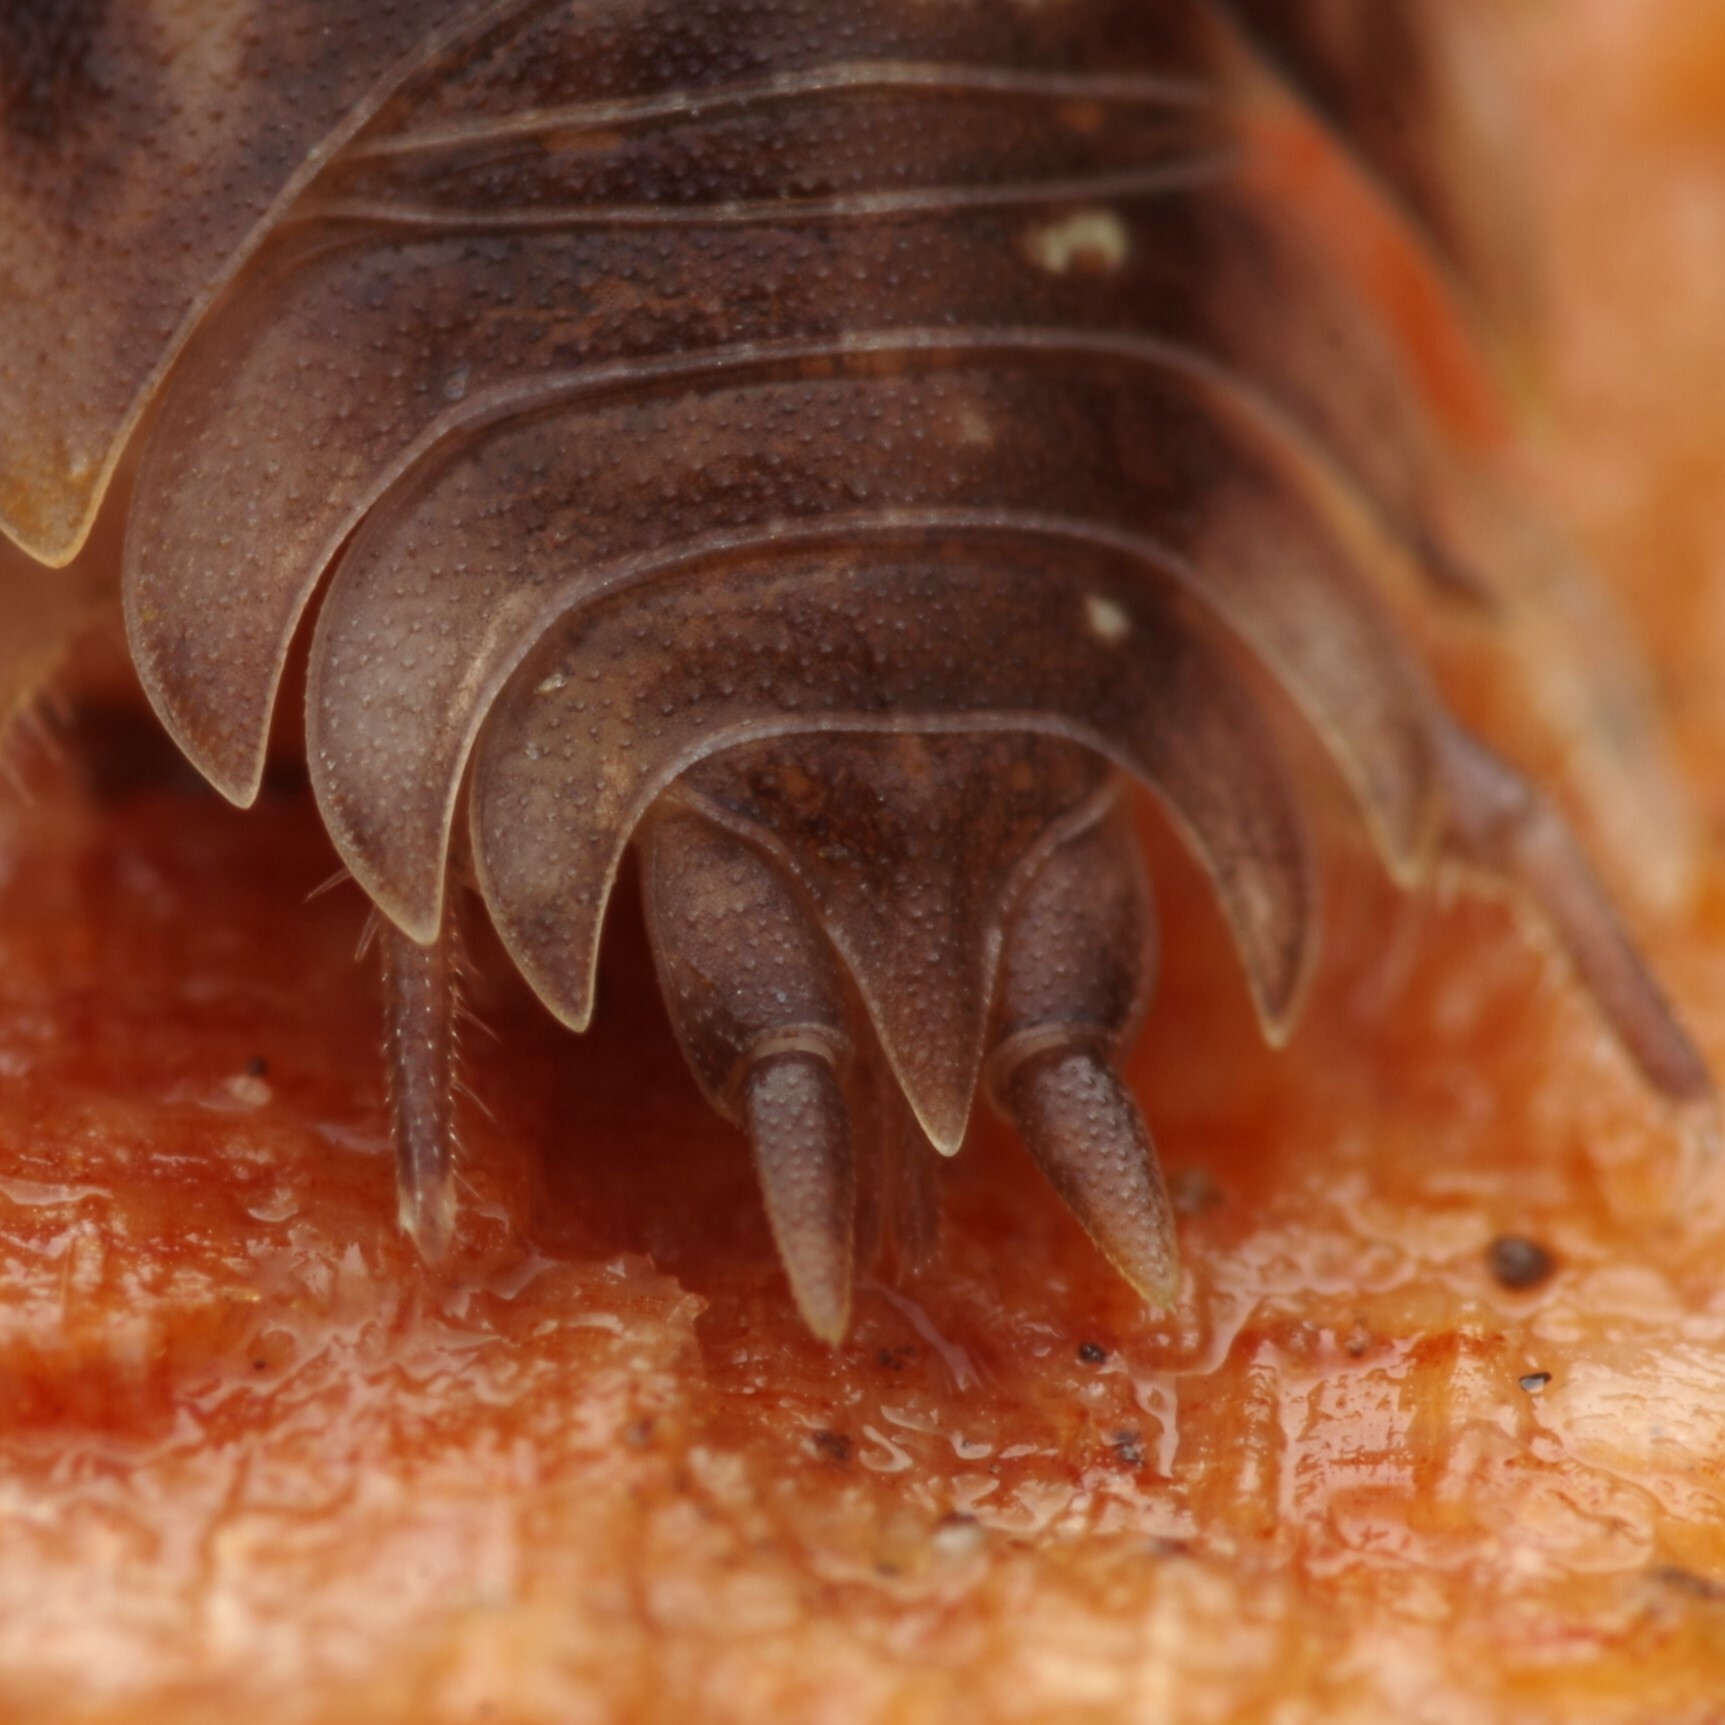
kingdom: Animalia
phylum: Arthropoda
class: Malacostraca
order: Isopoda
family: Oniscidae
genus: Oniscus
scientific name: Oniscus asellus
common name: Common shiny woodlouse
